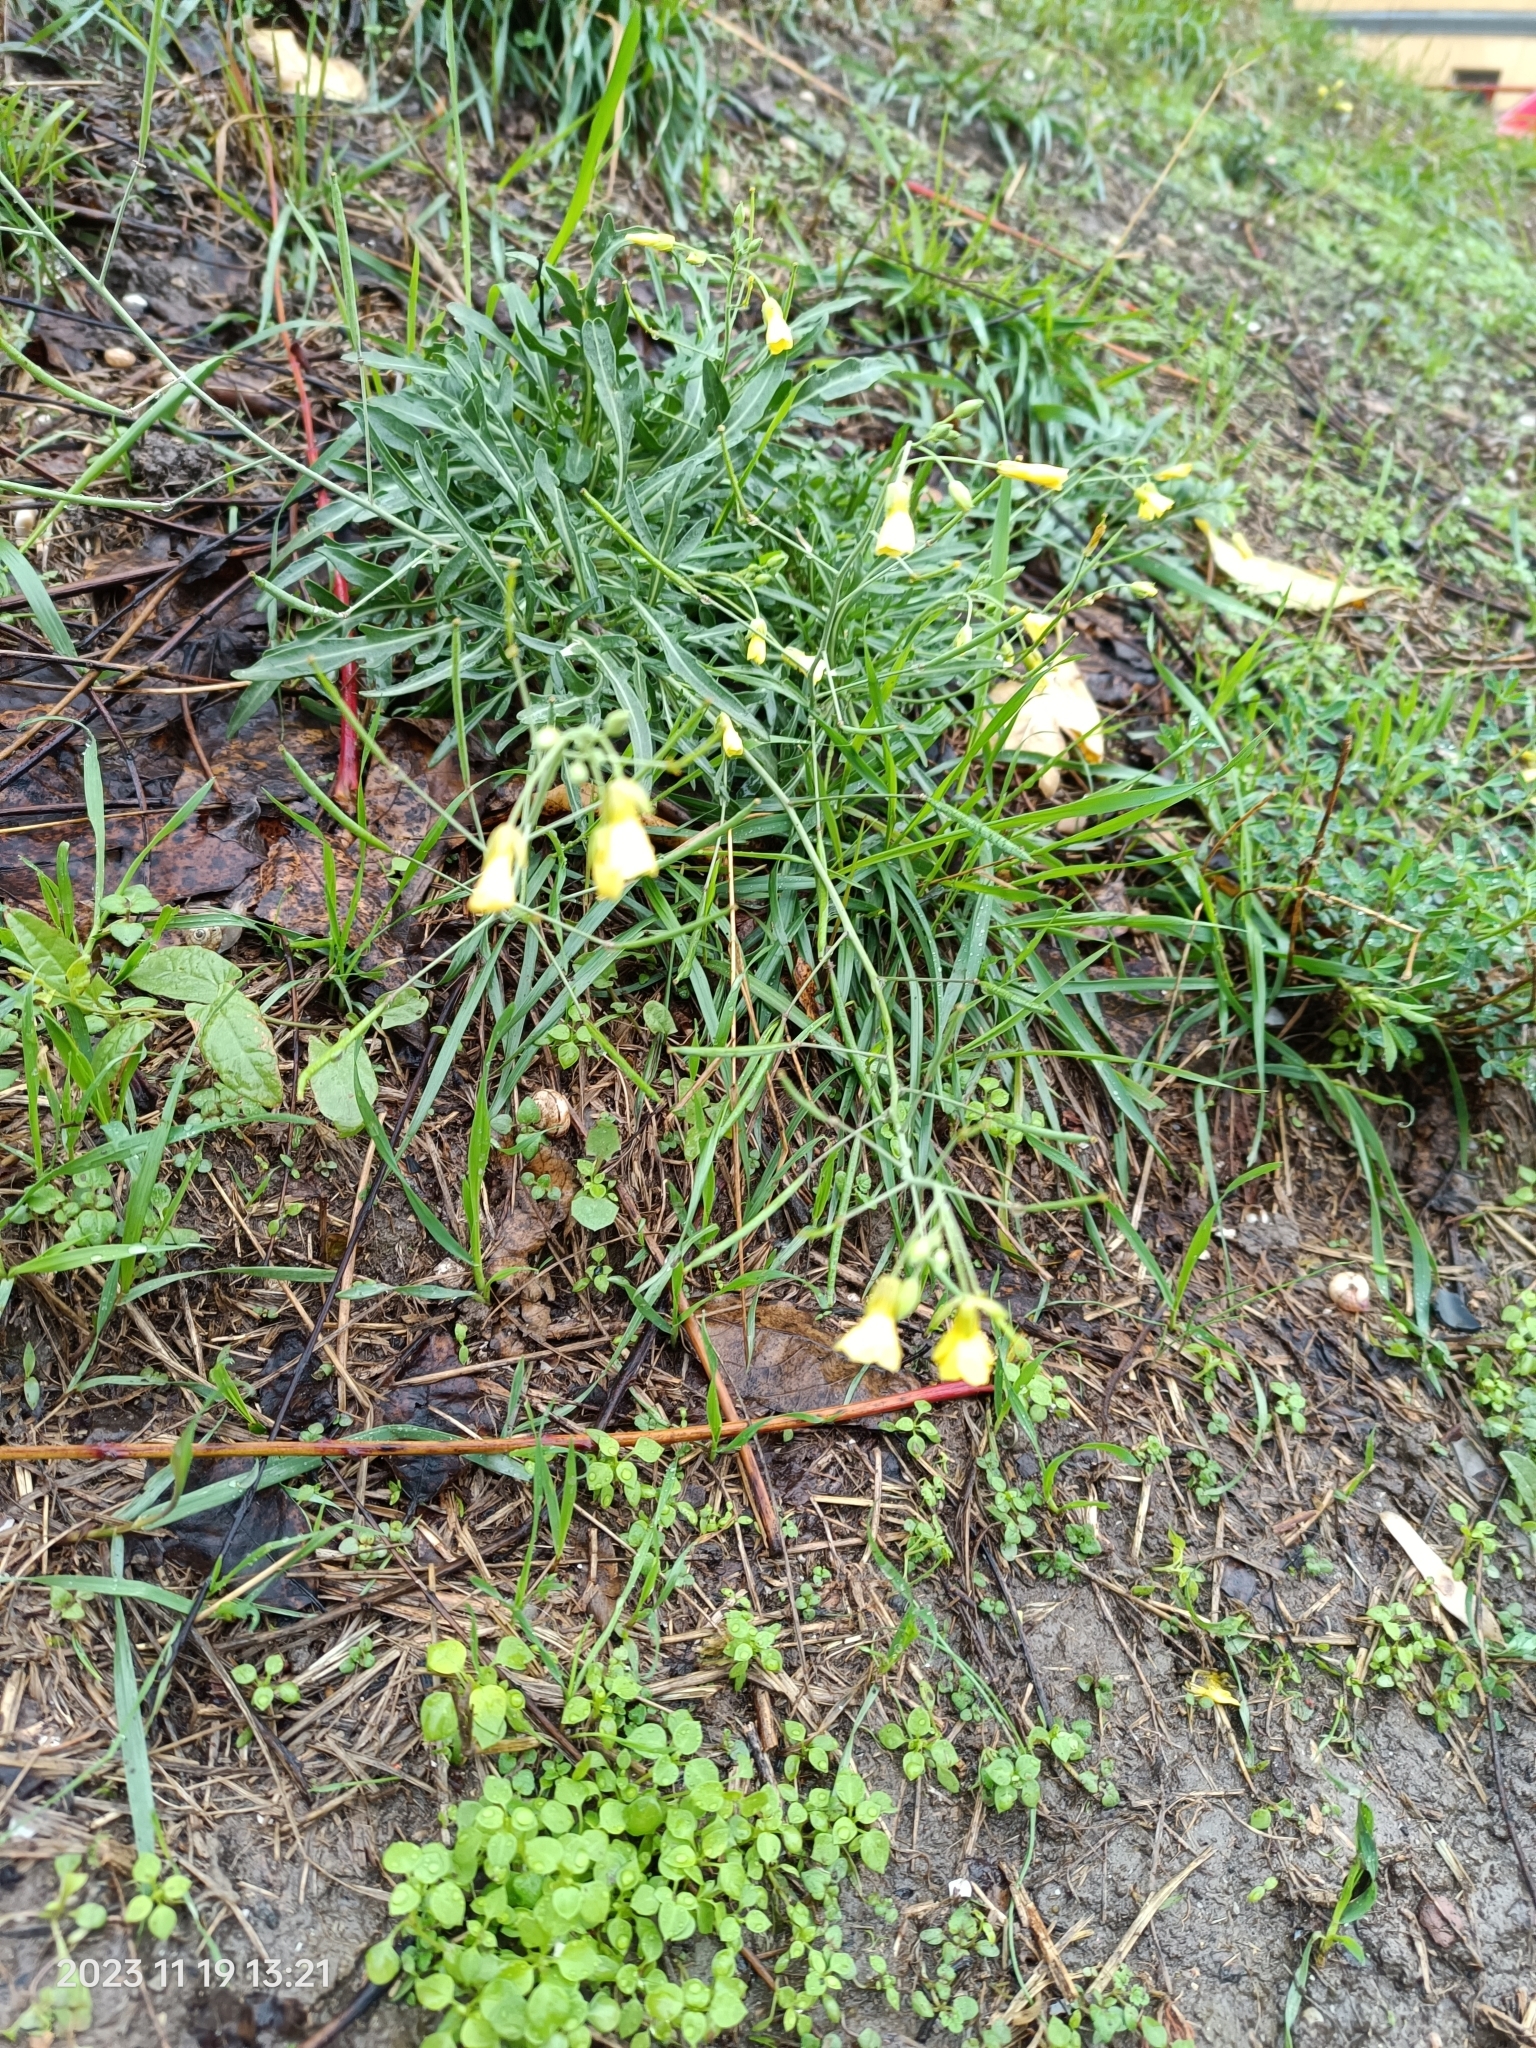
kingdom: Plantae
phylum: Tracheophyta
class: Magnoliopsida
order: Brassicales
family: Brassicaceae
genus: Diplotaxis
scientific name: Diplotaxis tenuifolia
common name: Perennial wall-rocket
